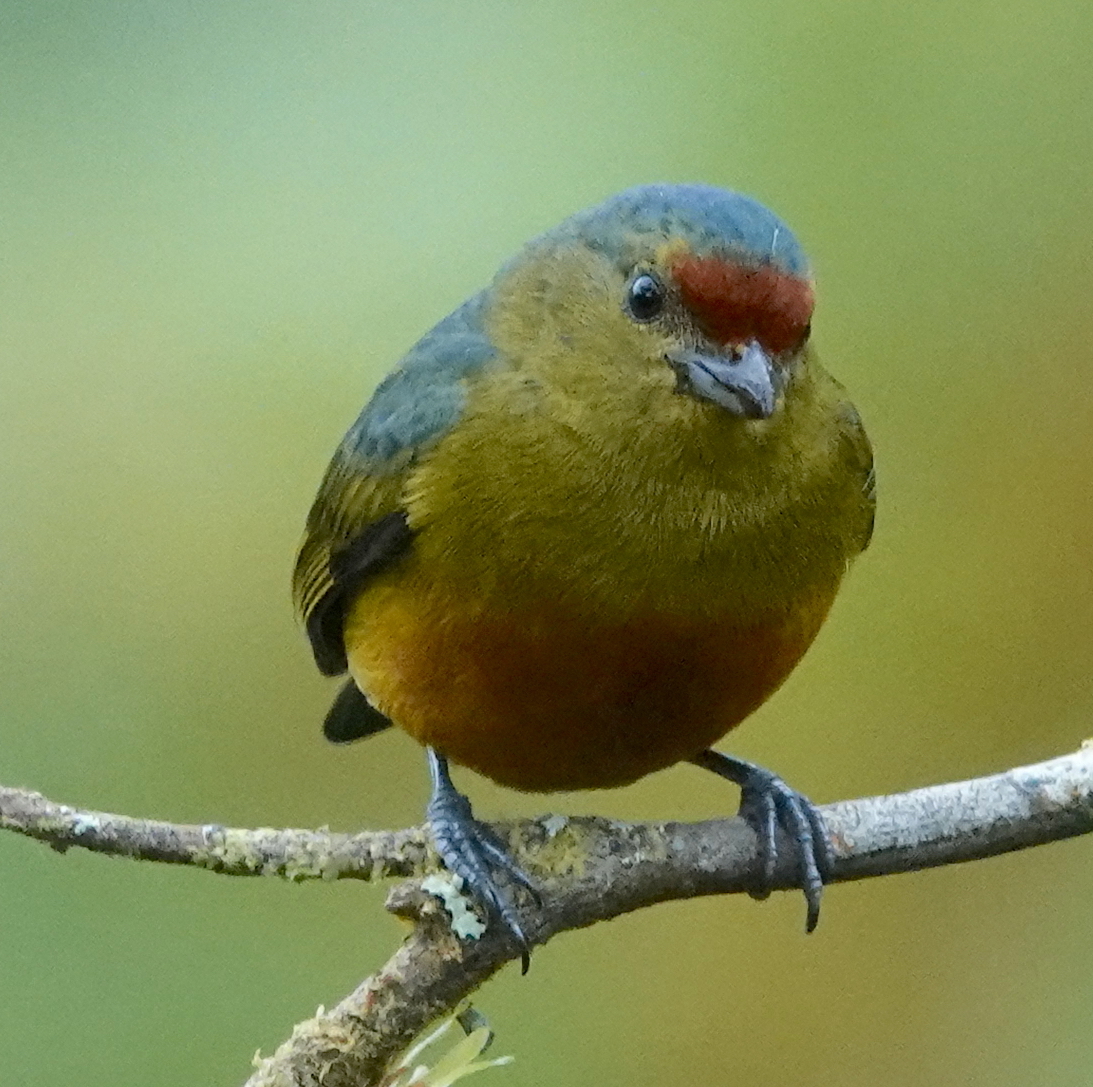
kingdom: Animalia
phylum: Chordata
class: Aves
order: Passeriformes
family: Fringillidae
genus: Euphonia
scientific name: Euphonia imitans
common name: Spot-crowned euphonia
